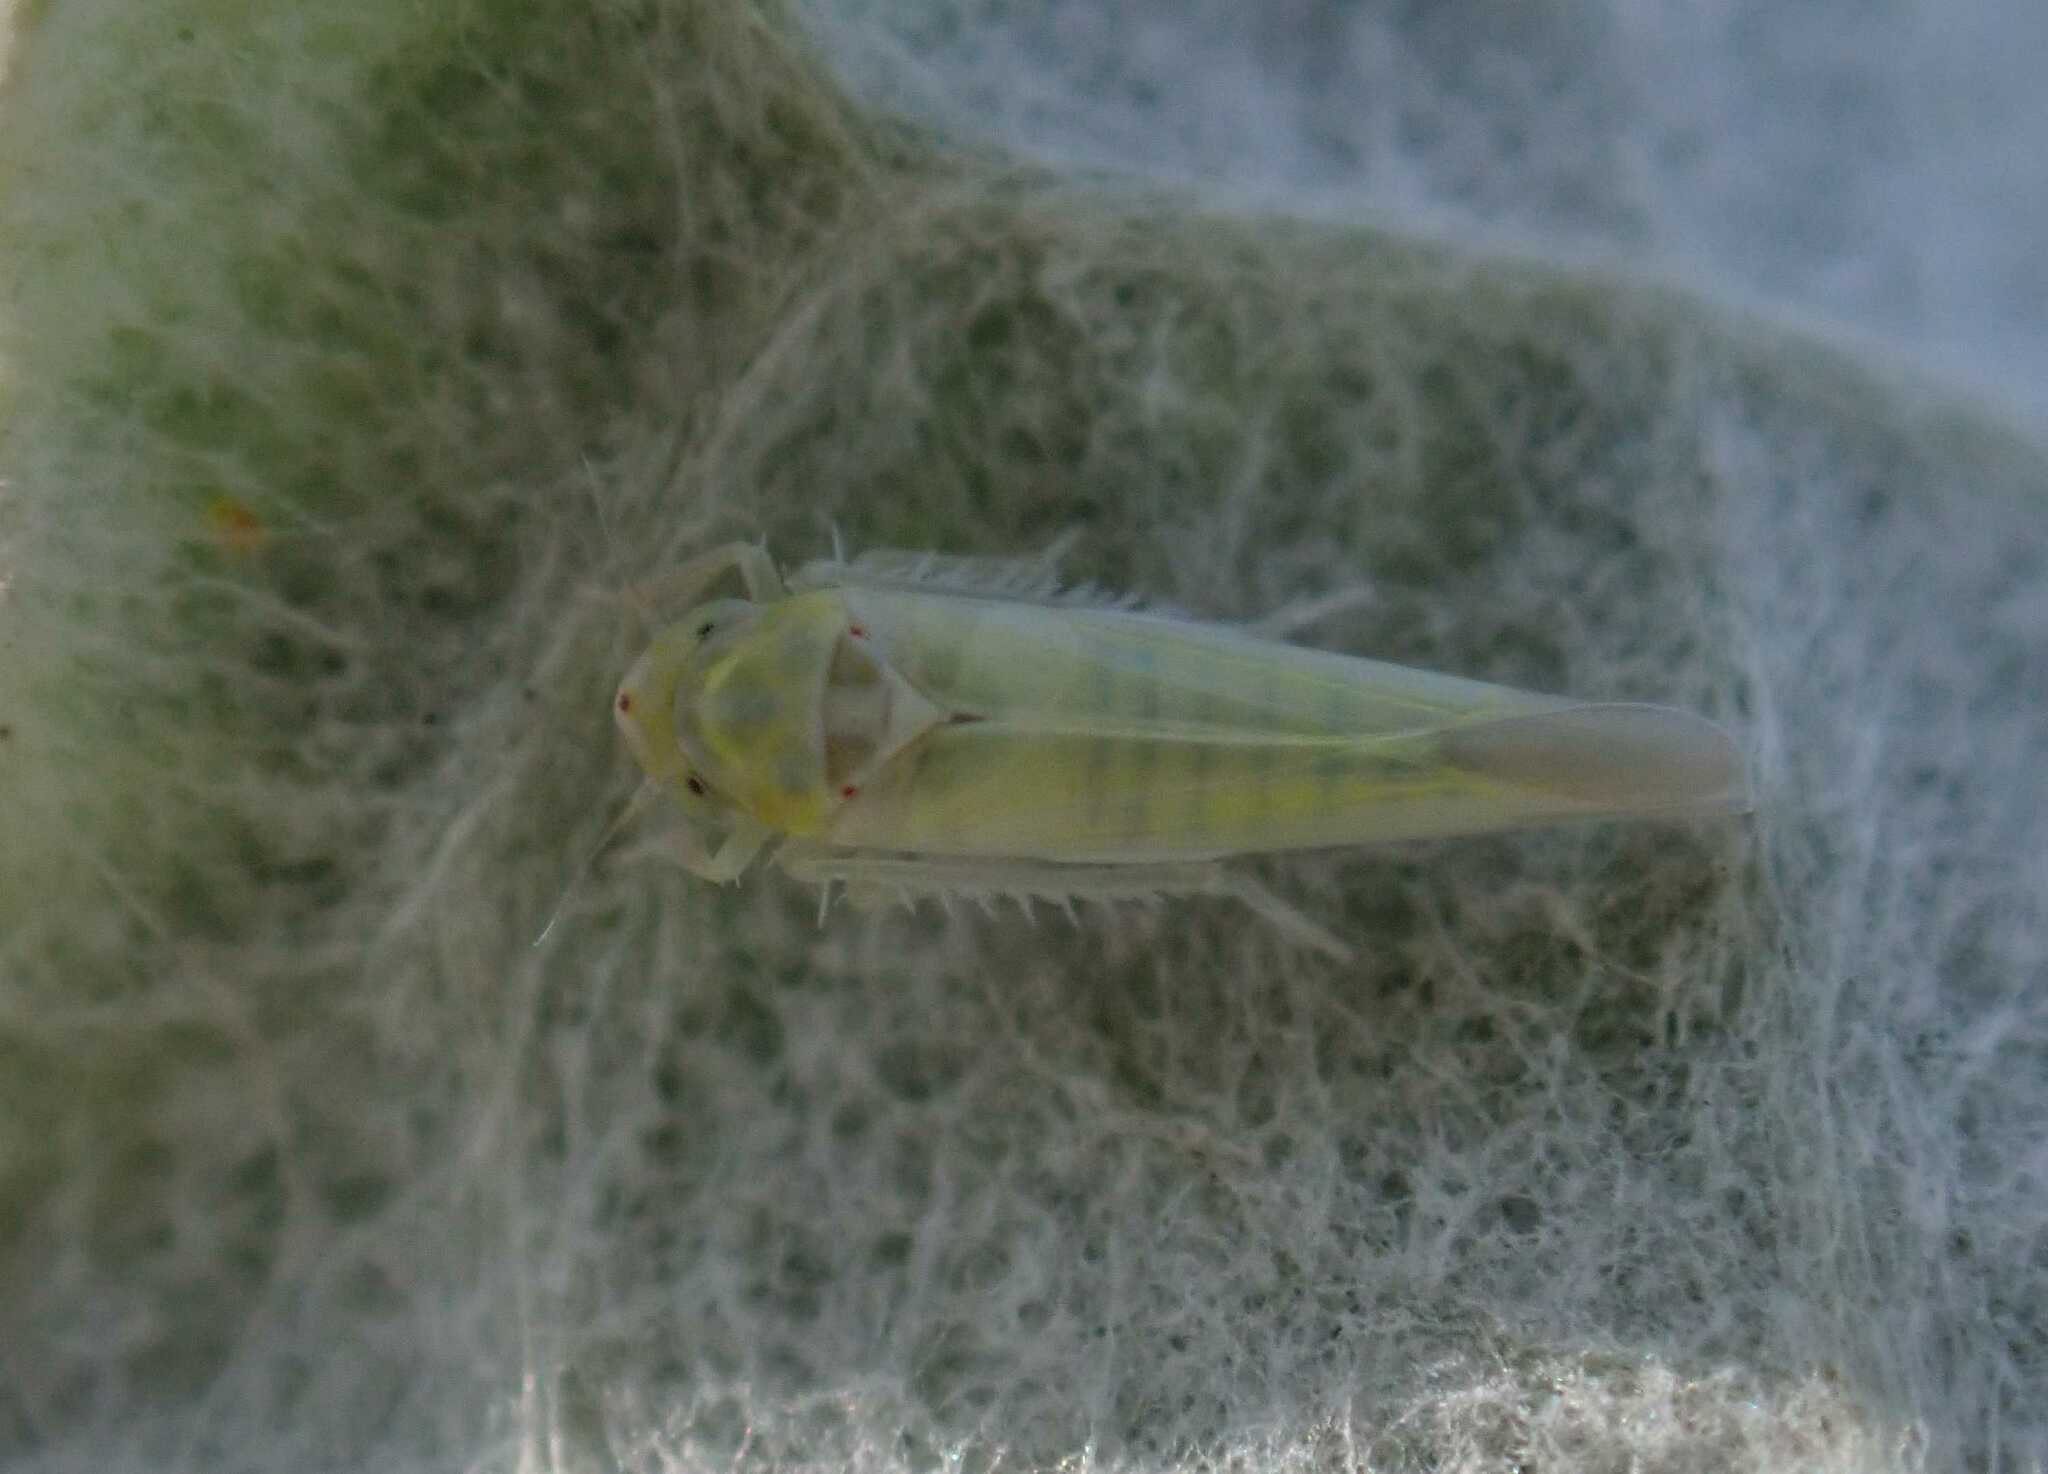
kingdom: Animalia
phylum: Arthropoda
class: Insecta
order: Hemiptera
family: Cicadellidae
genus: Zygina
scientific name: Zygina nivea
